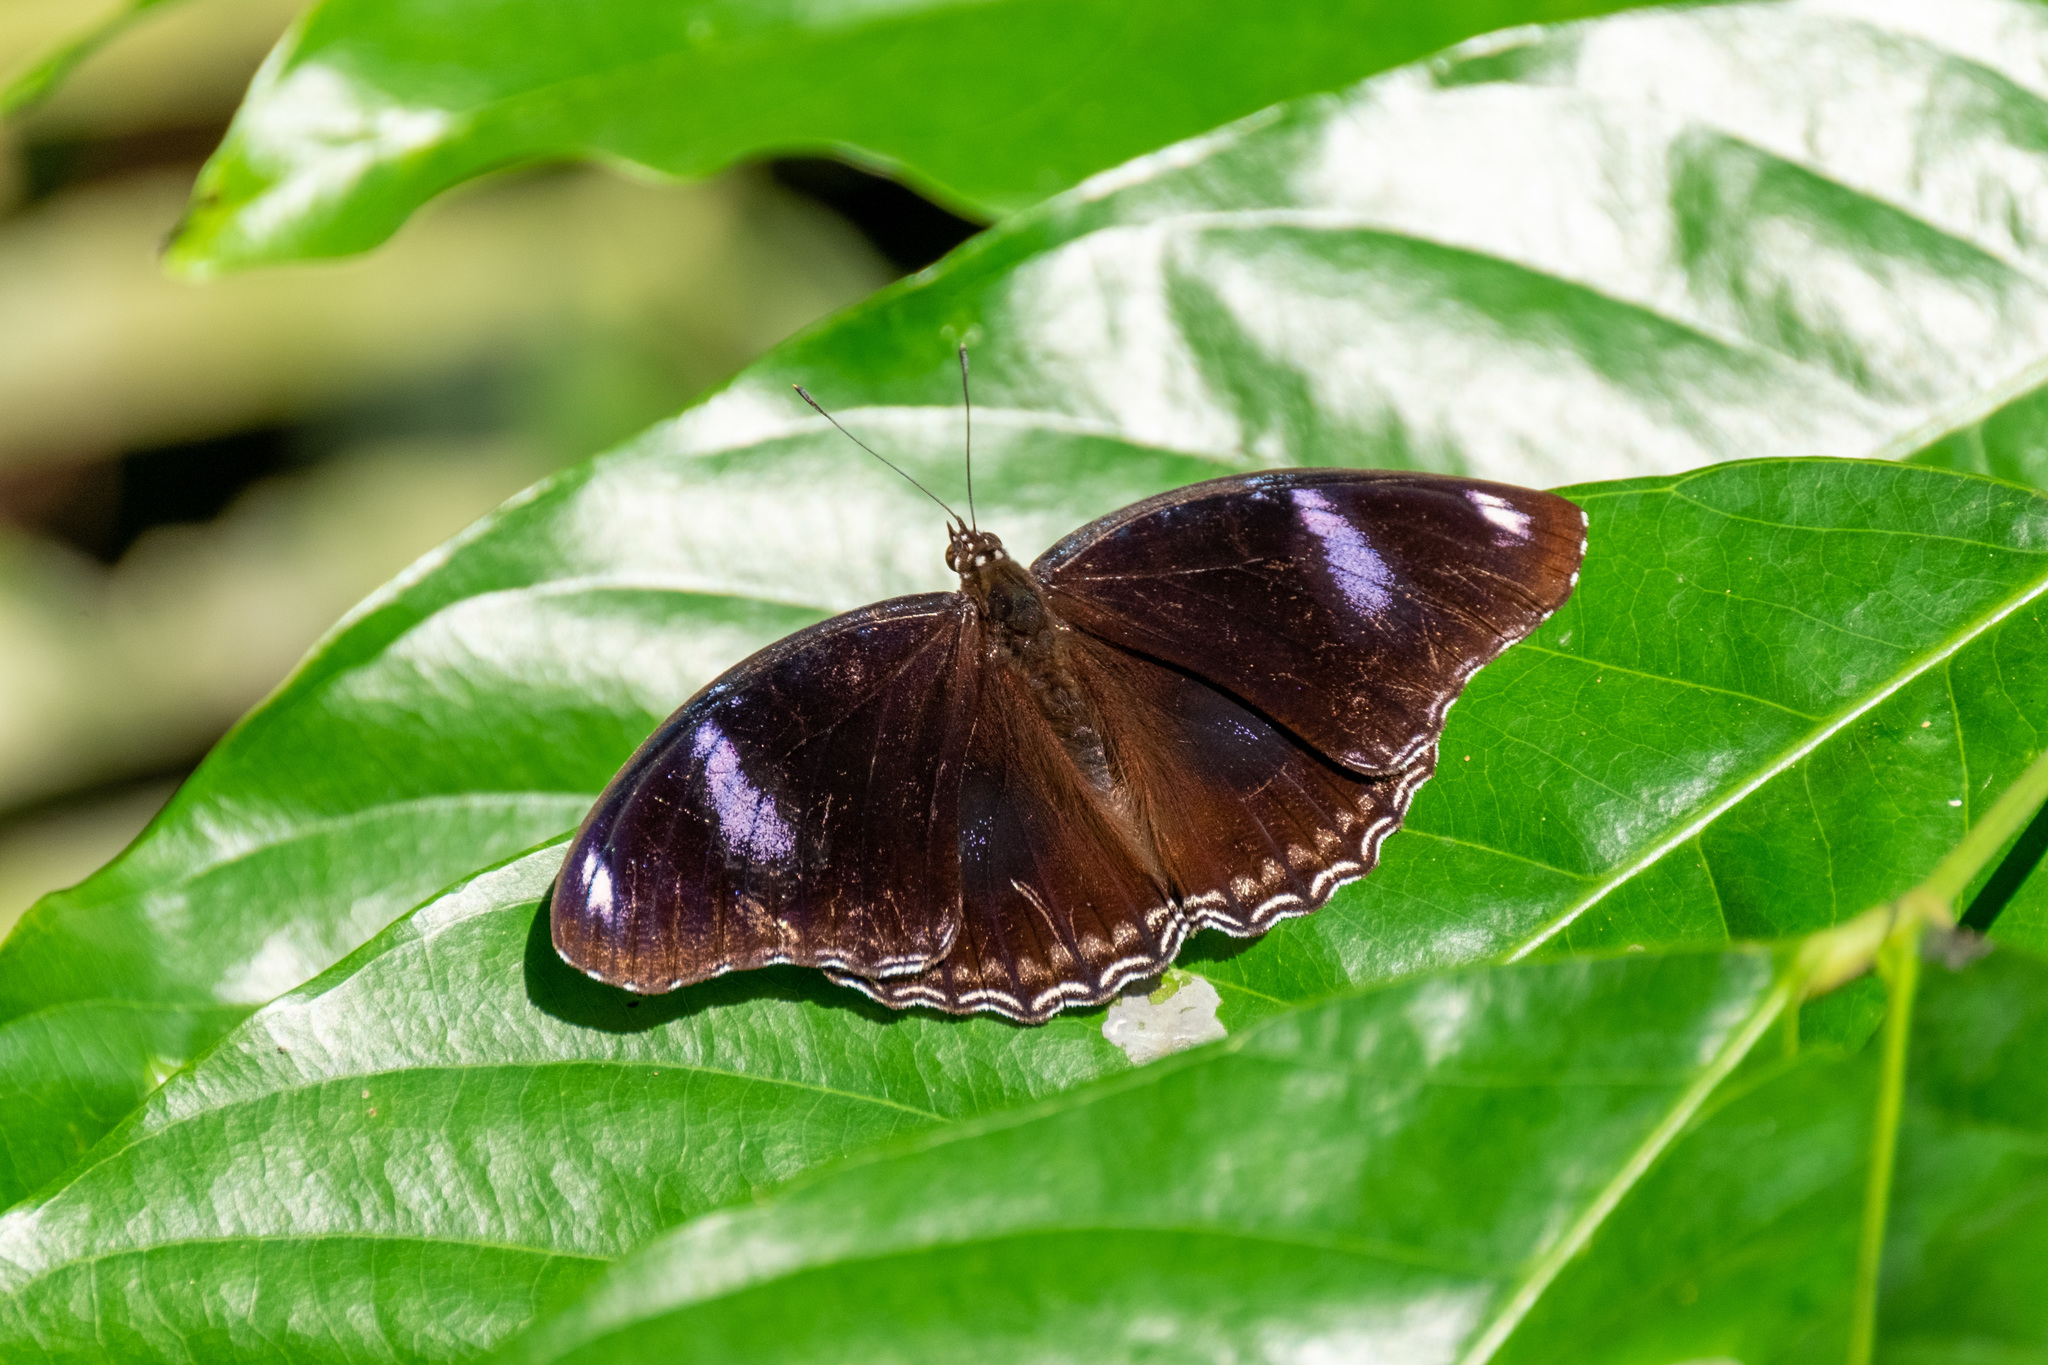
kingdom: Animalia
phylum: Arthropoda
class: Insecta
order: Lepidoptera
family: Nymphalidae
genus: Hypolimnas
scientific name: Hypolimnas bolina
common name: Great eggfly
